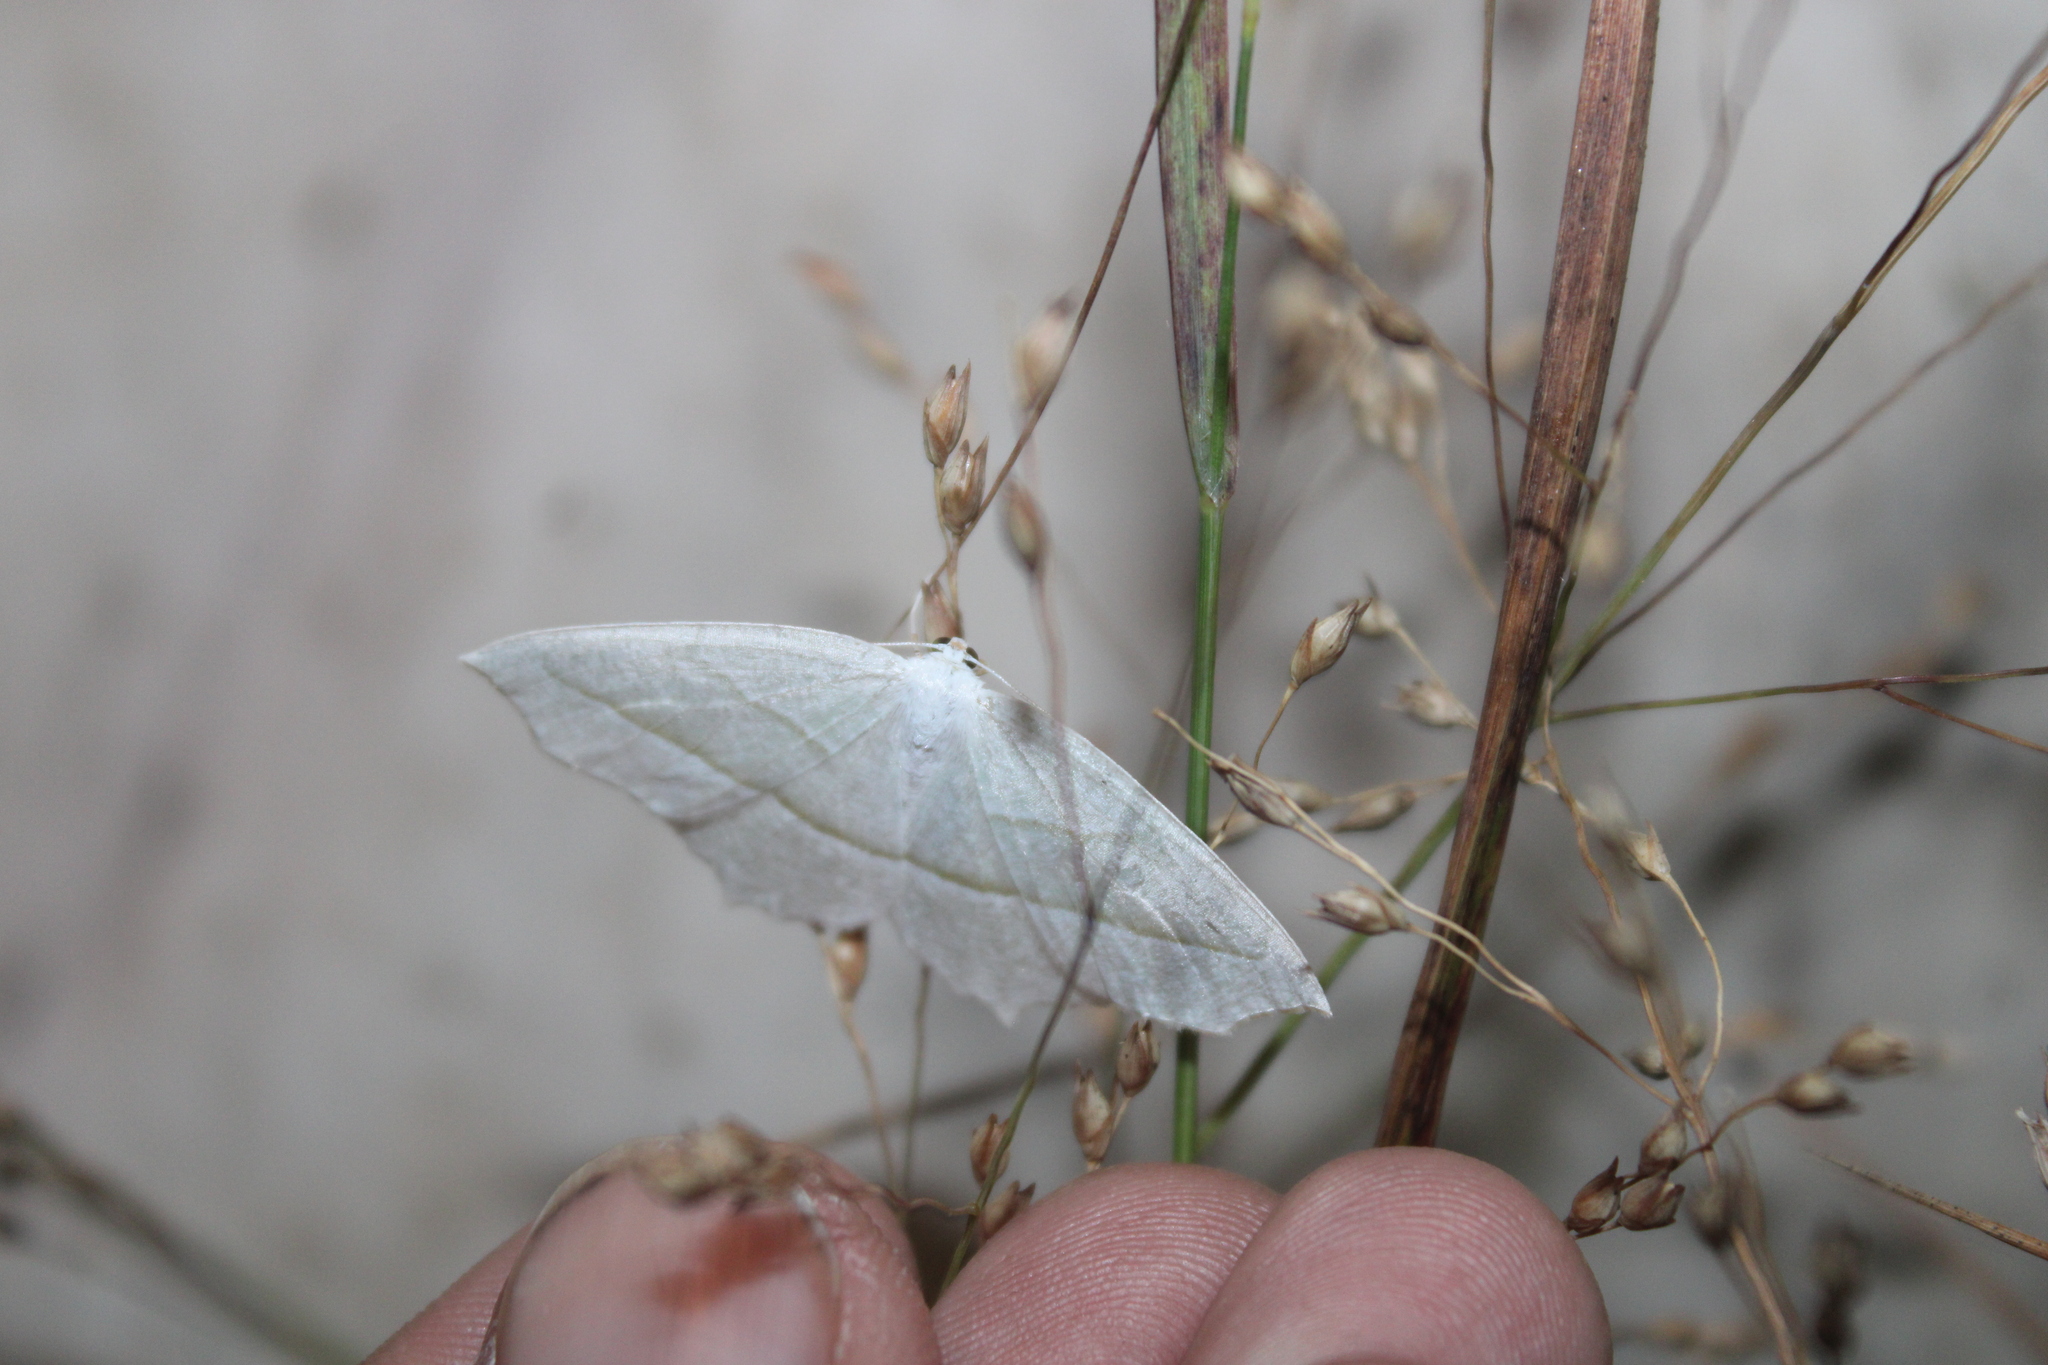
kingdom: Animalia
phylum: Arthropoda
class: Insecta
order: Lepidoptera
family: Geometridae
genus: Campaea
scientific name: Campaea perlata
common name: Fringed looper
